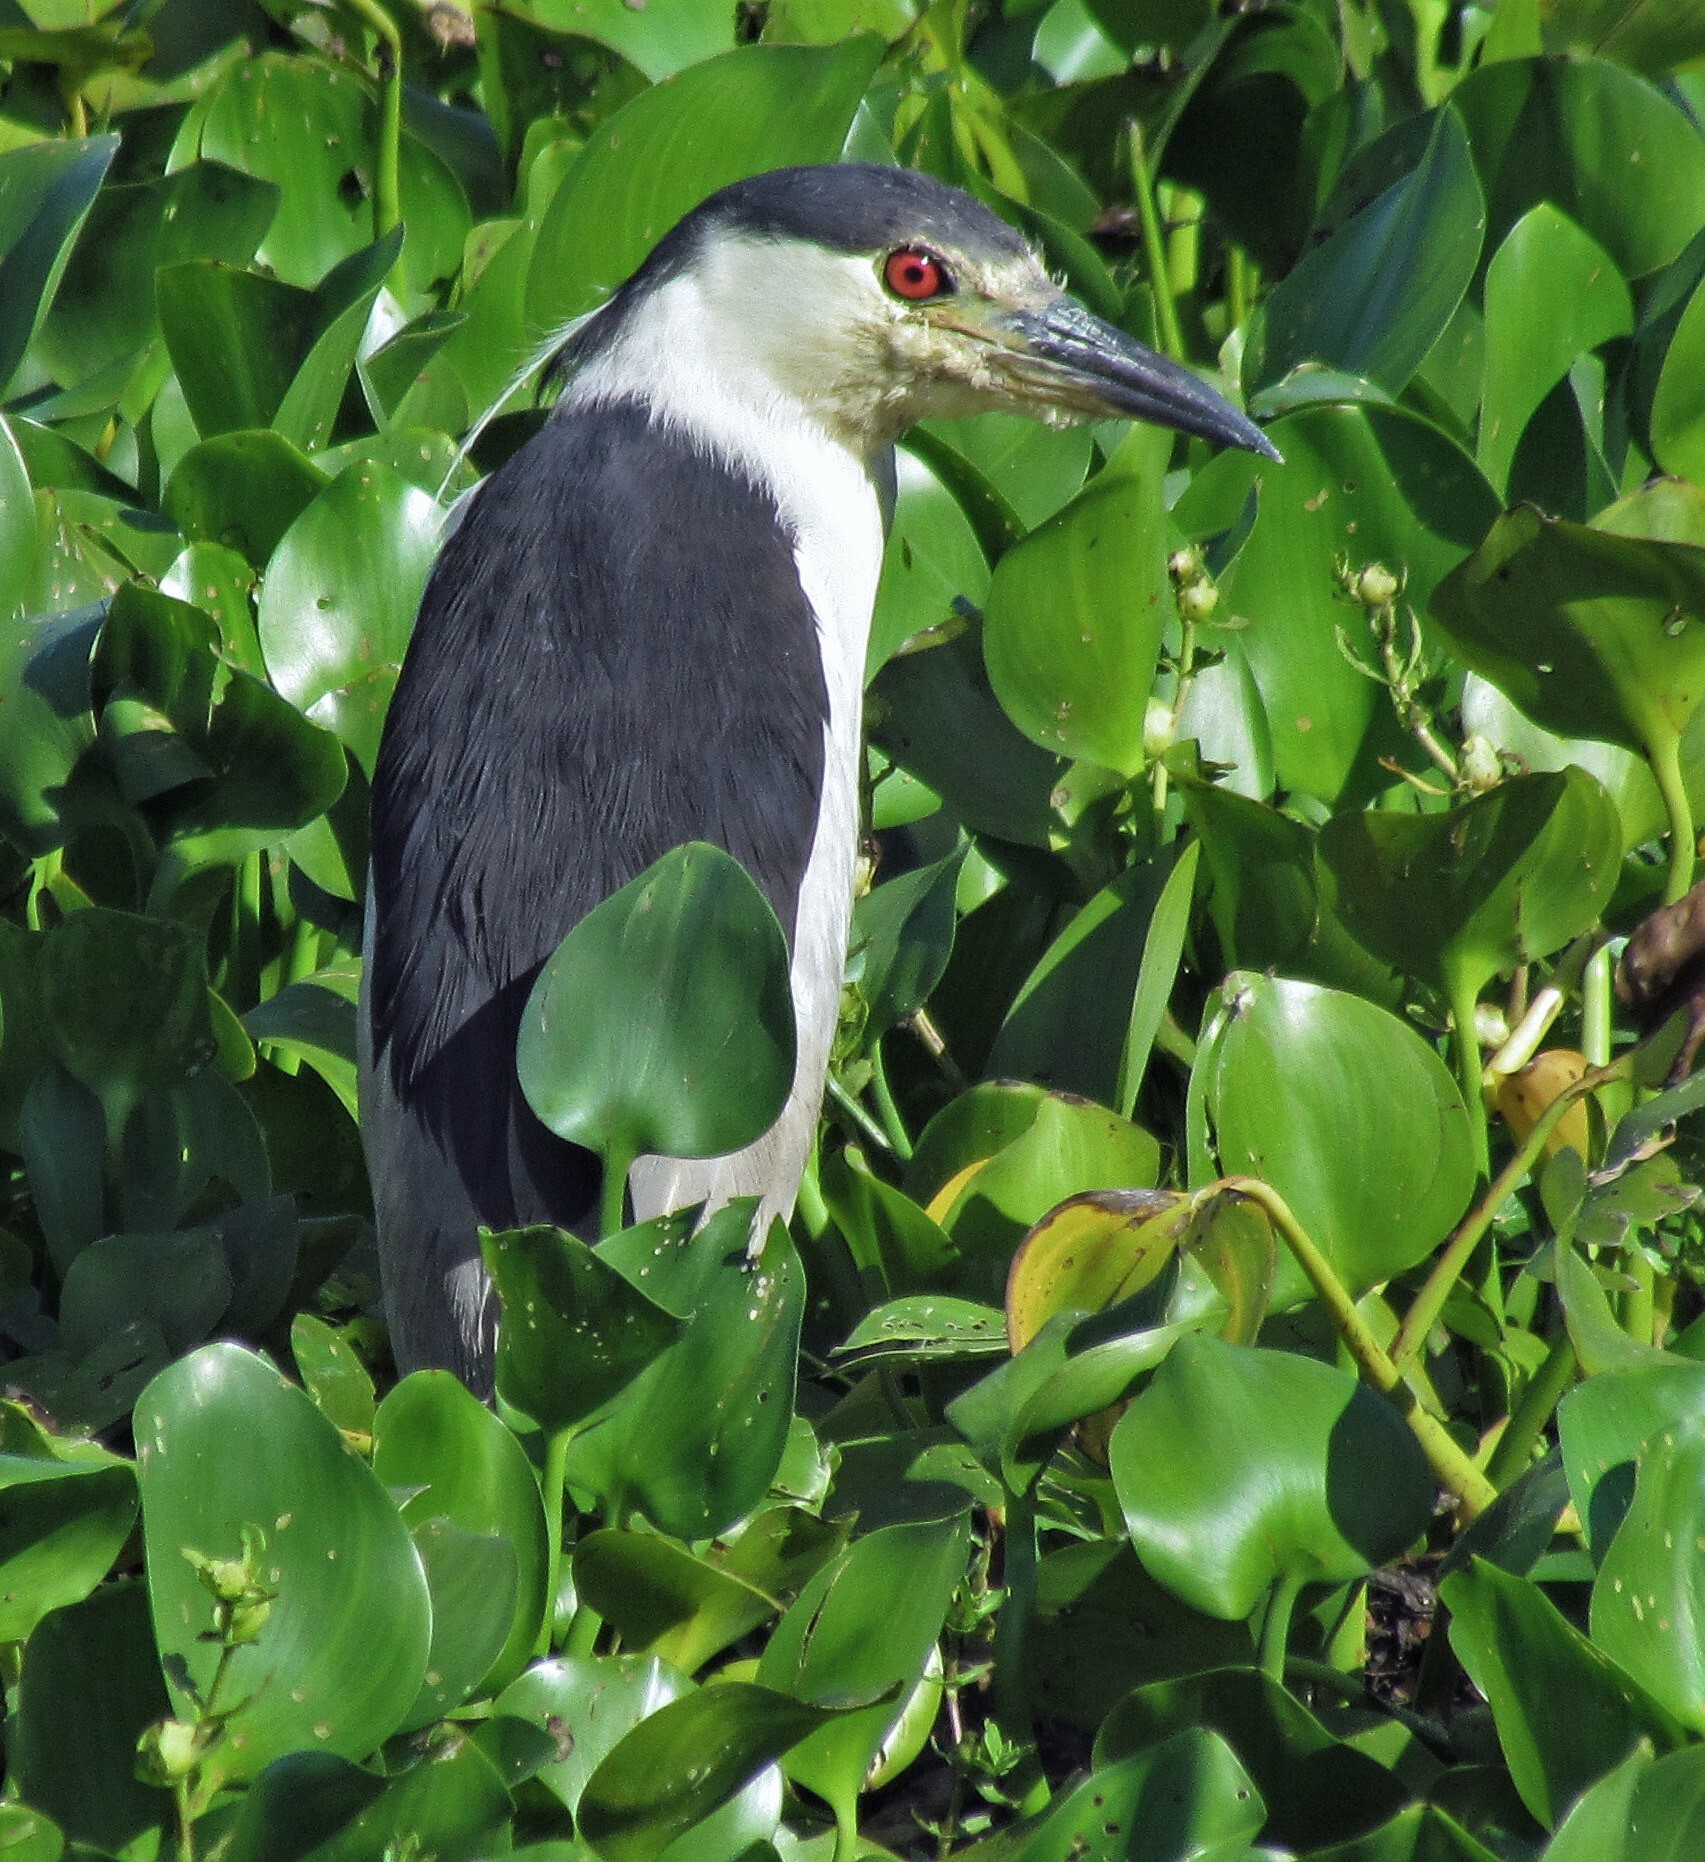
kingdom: Animalia
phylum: Chordata
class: Aves
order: Pelecaniformes
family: Ardeidae
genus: Nycticorax
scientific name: Nycticorax nycticorax
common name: Black-crowned night heron
